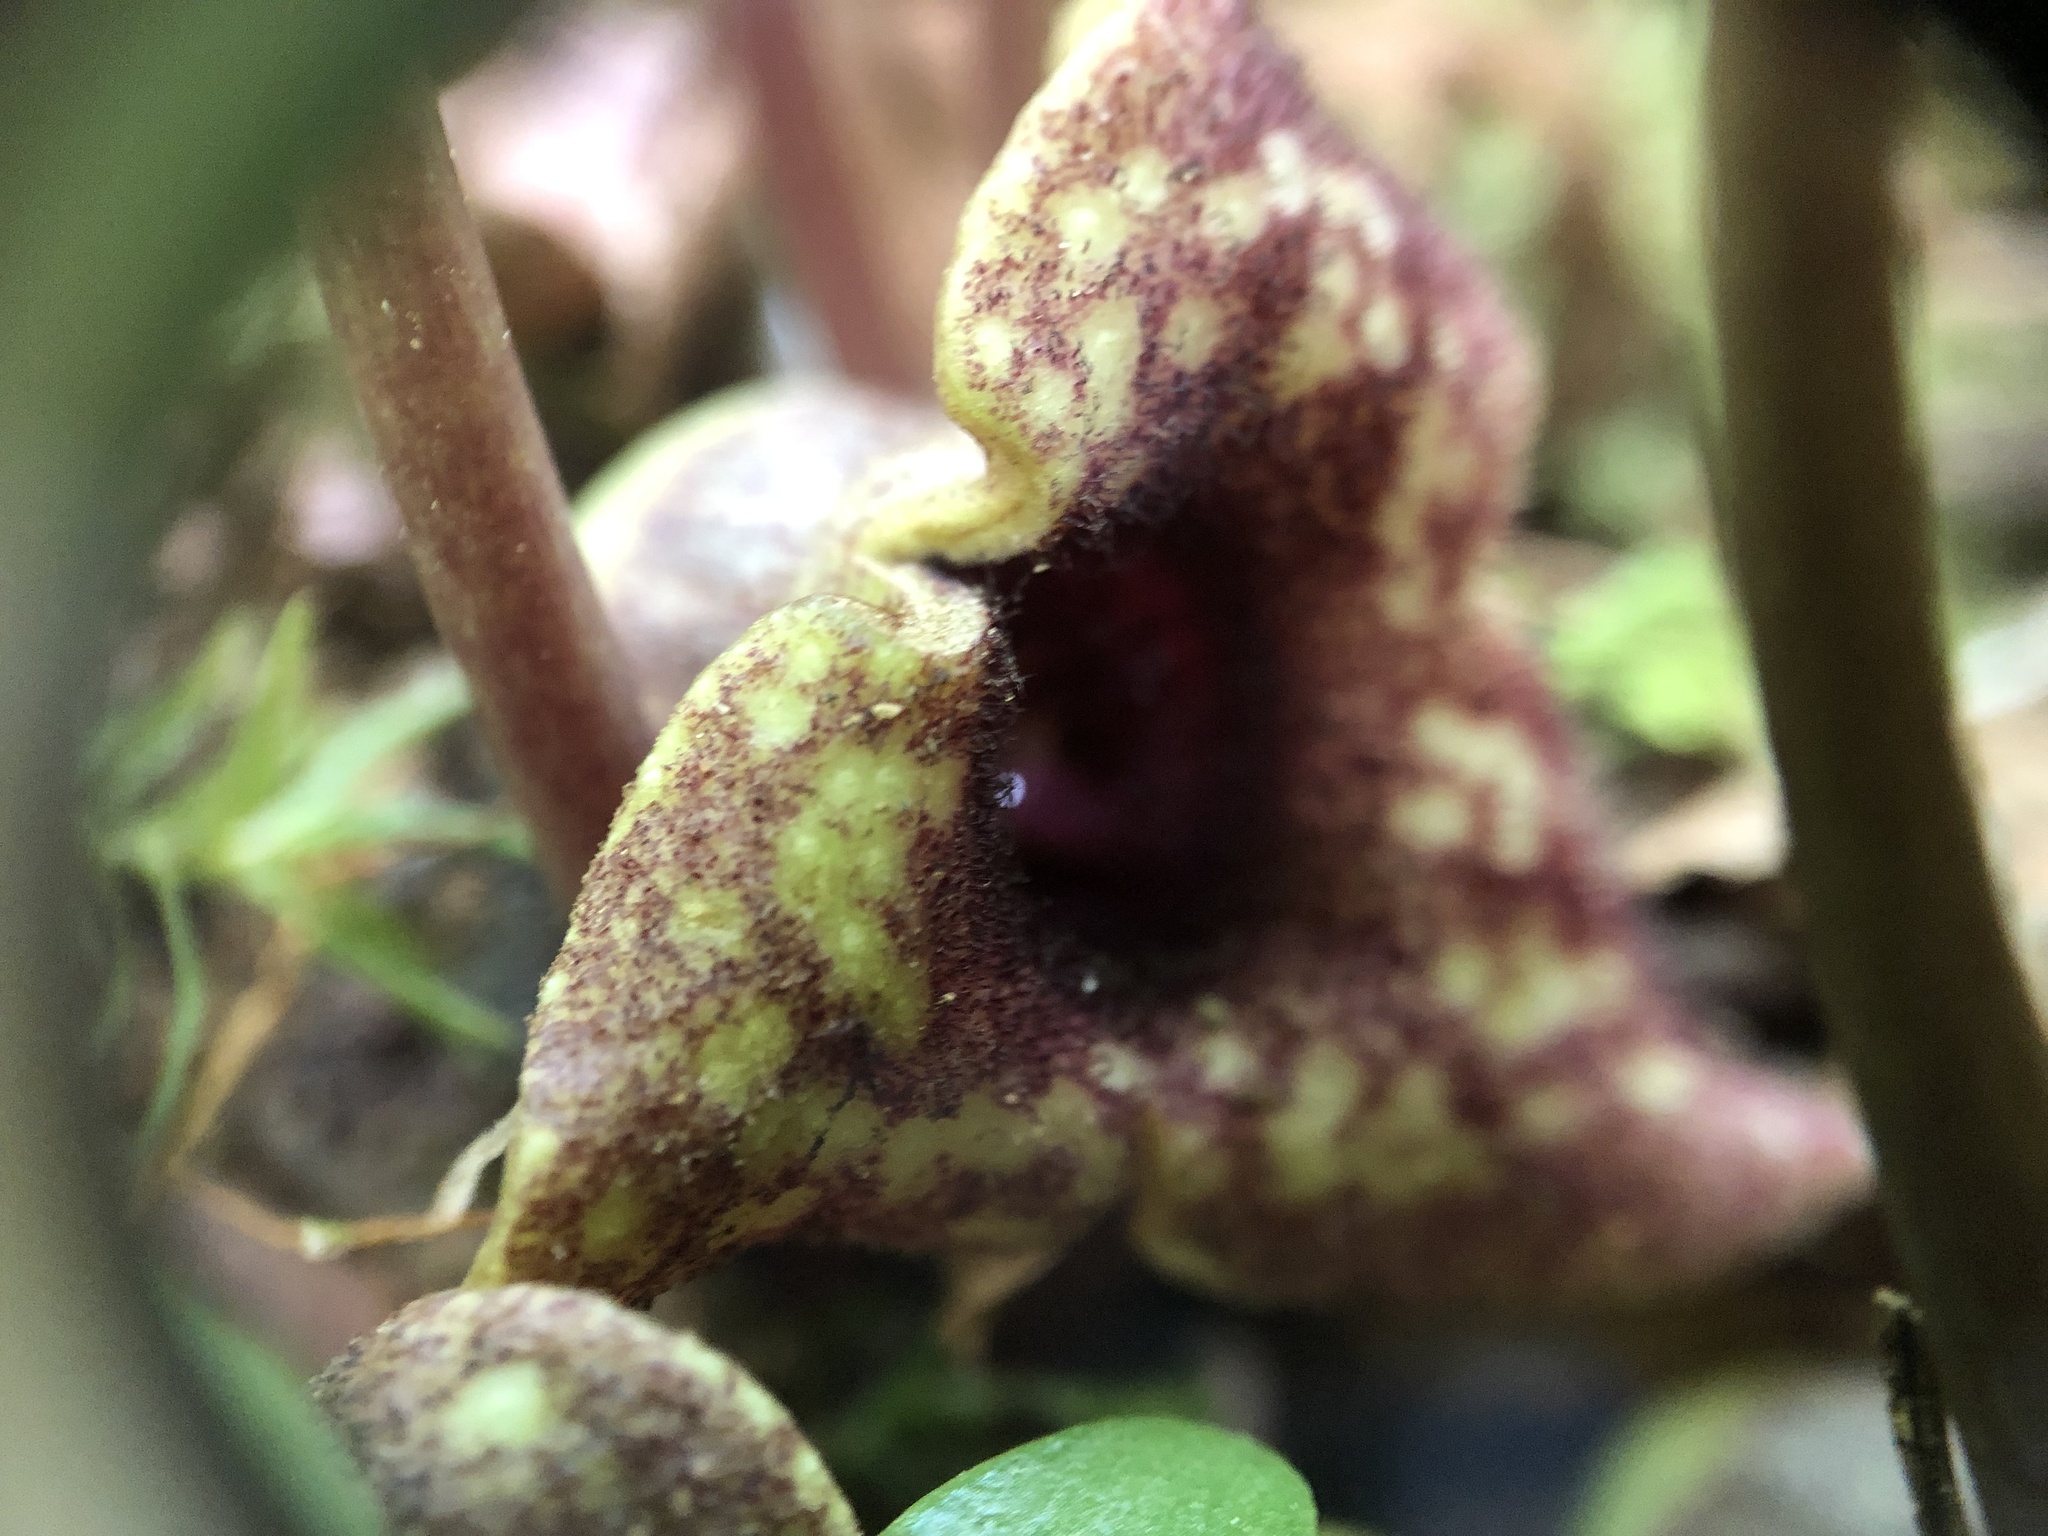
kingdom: Plantae
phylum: Tracheophyta
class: Magnoliopsida
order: Piperales
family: Aristolochiaceae
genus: Hexastylis
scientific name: Hexastylis heterophylla
